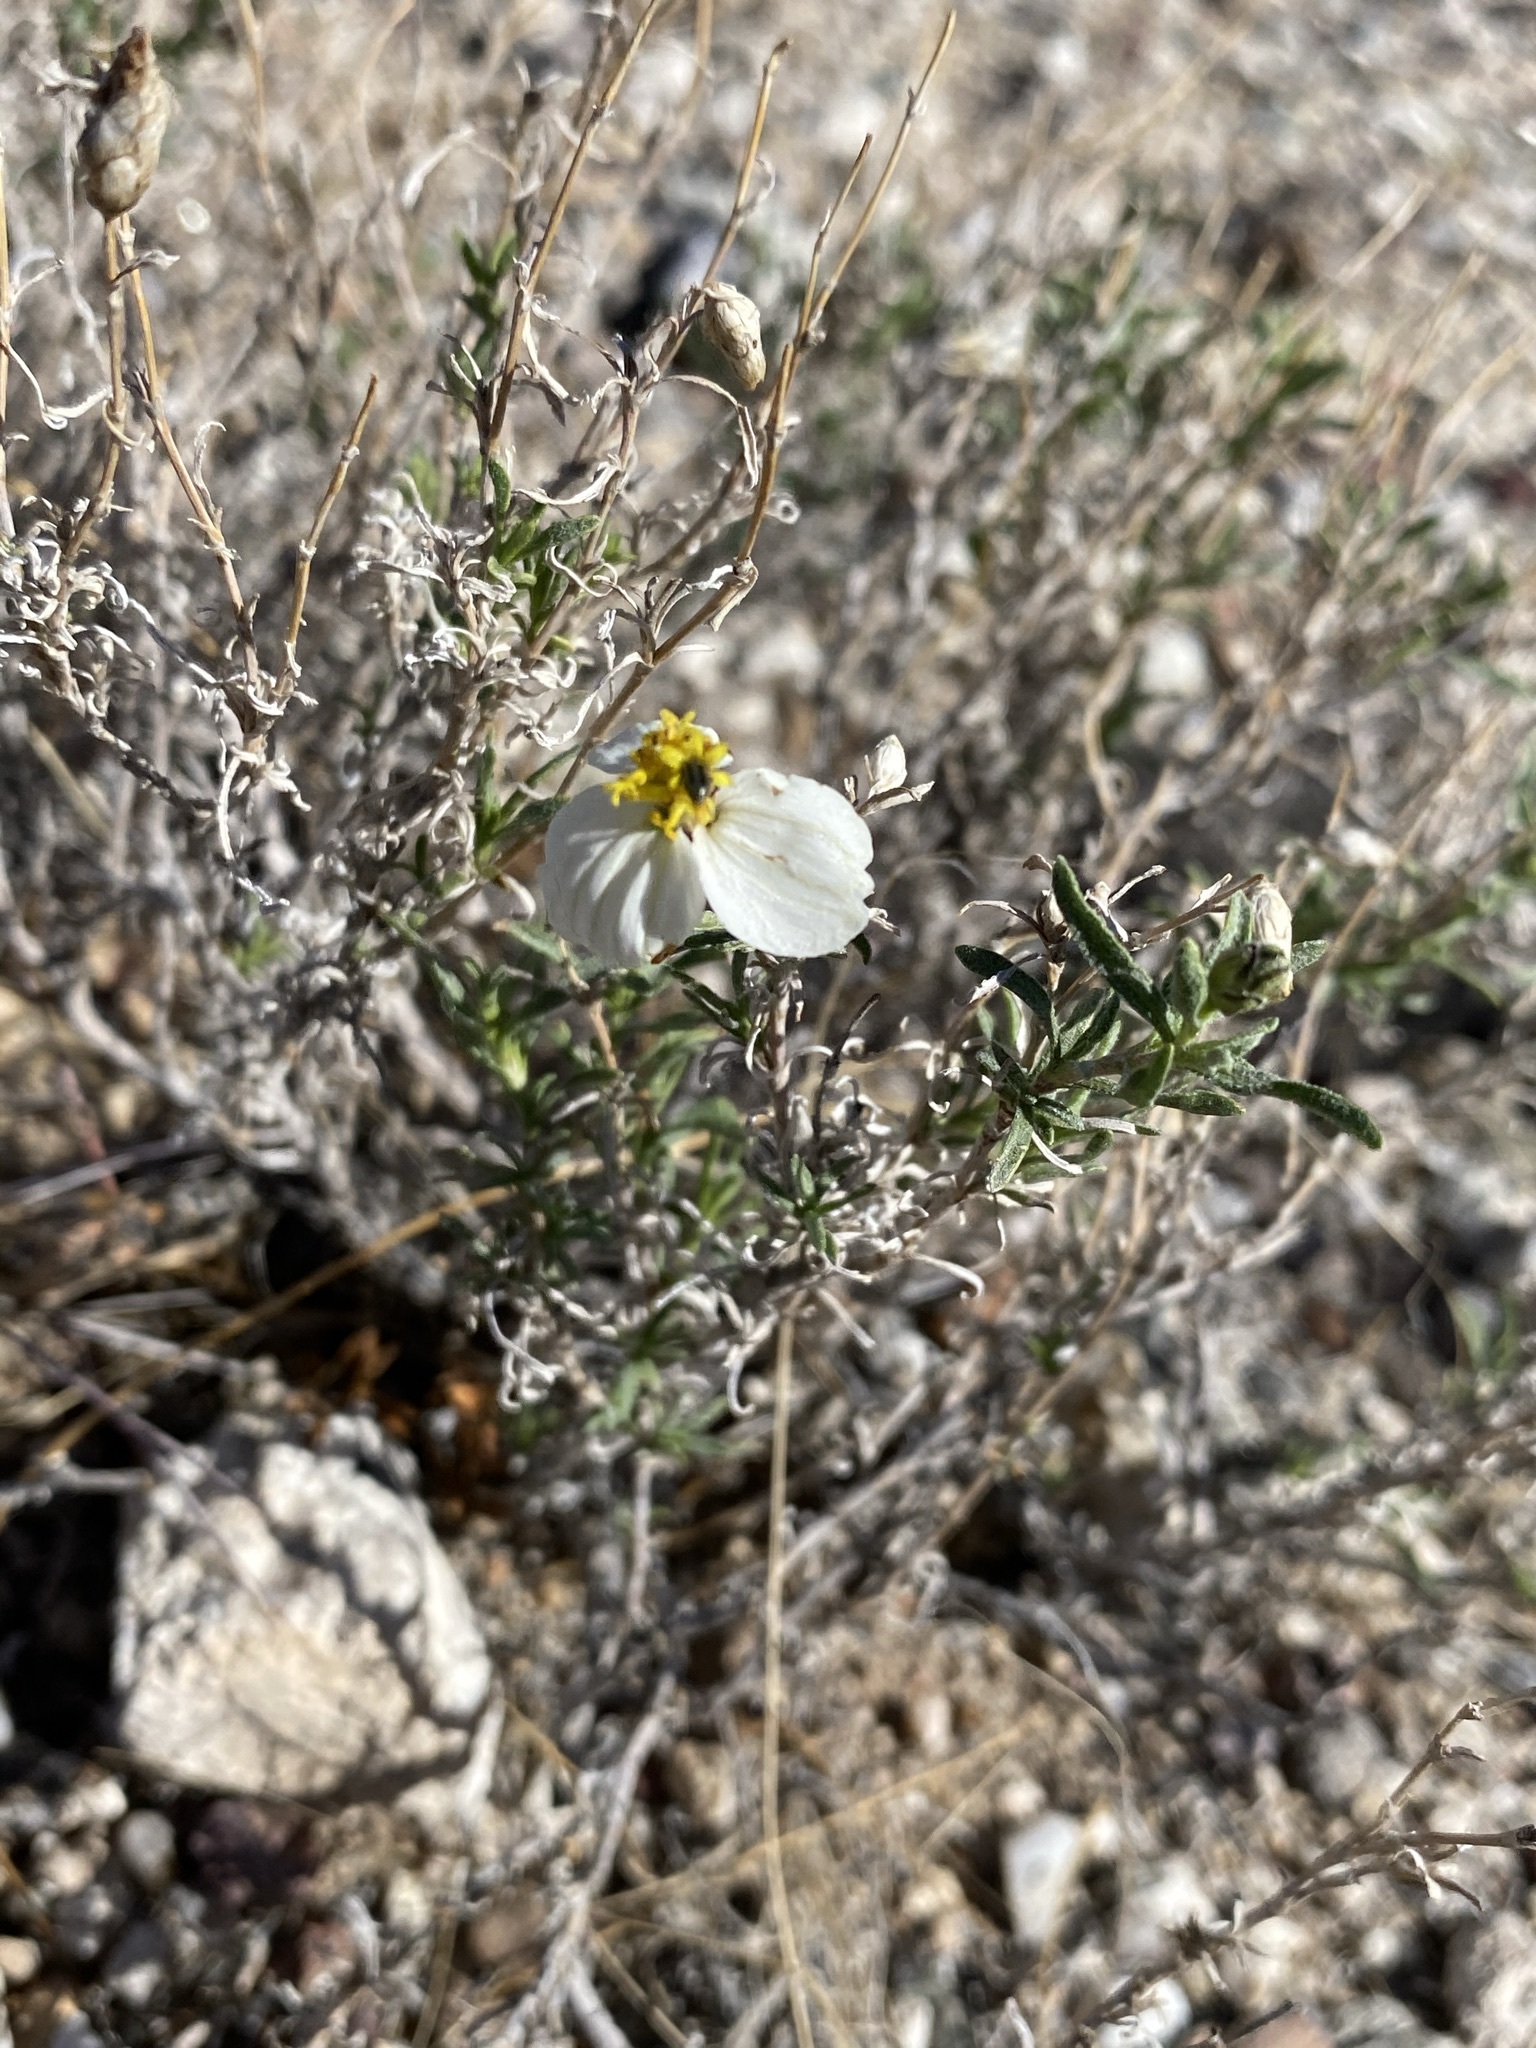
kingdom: Plantae
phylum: Tracheophyta
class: Magnoliopsida
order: Asterales
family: Asteraceae
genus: Zinnia
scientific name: Zinnia acerosa
